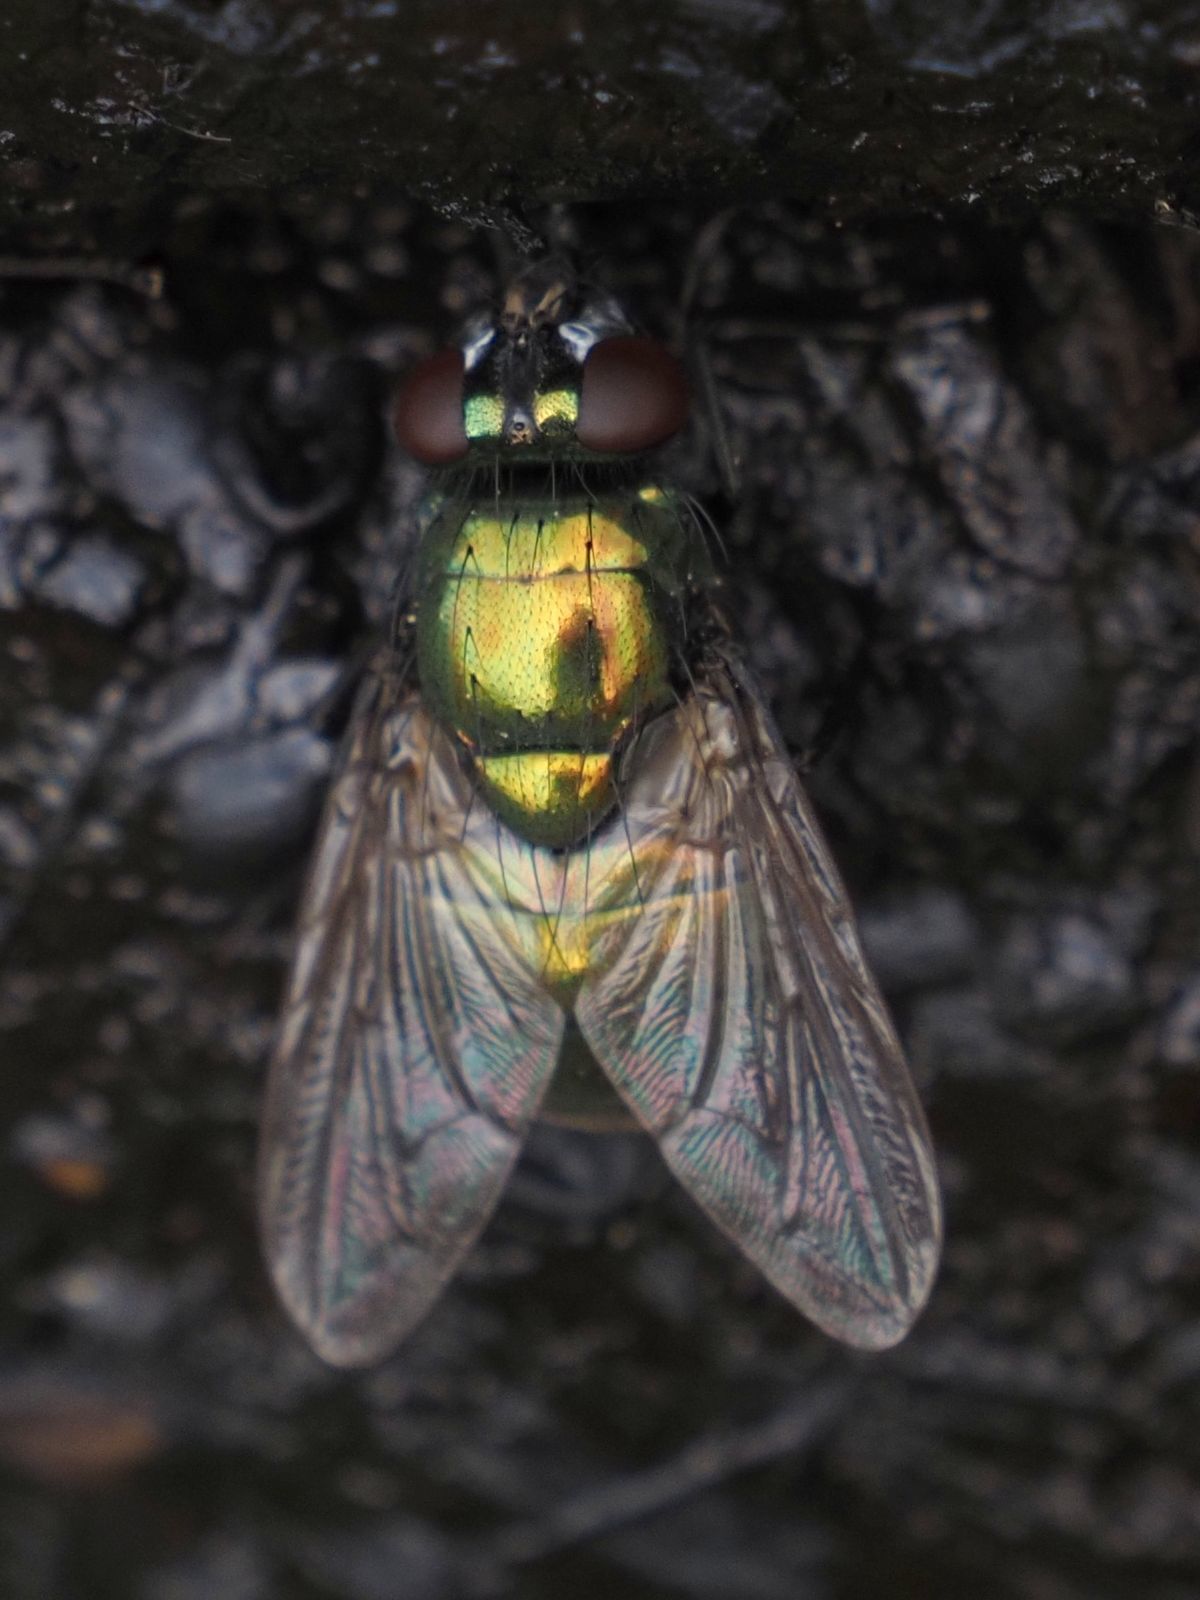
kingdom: Animalia
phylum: Arthropoda
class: Insecta
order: Diptera
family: Muscidae
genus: Neomyia
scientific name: Neomyia cornicina
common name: House fly
